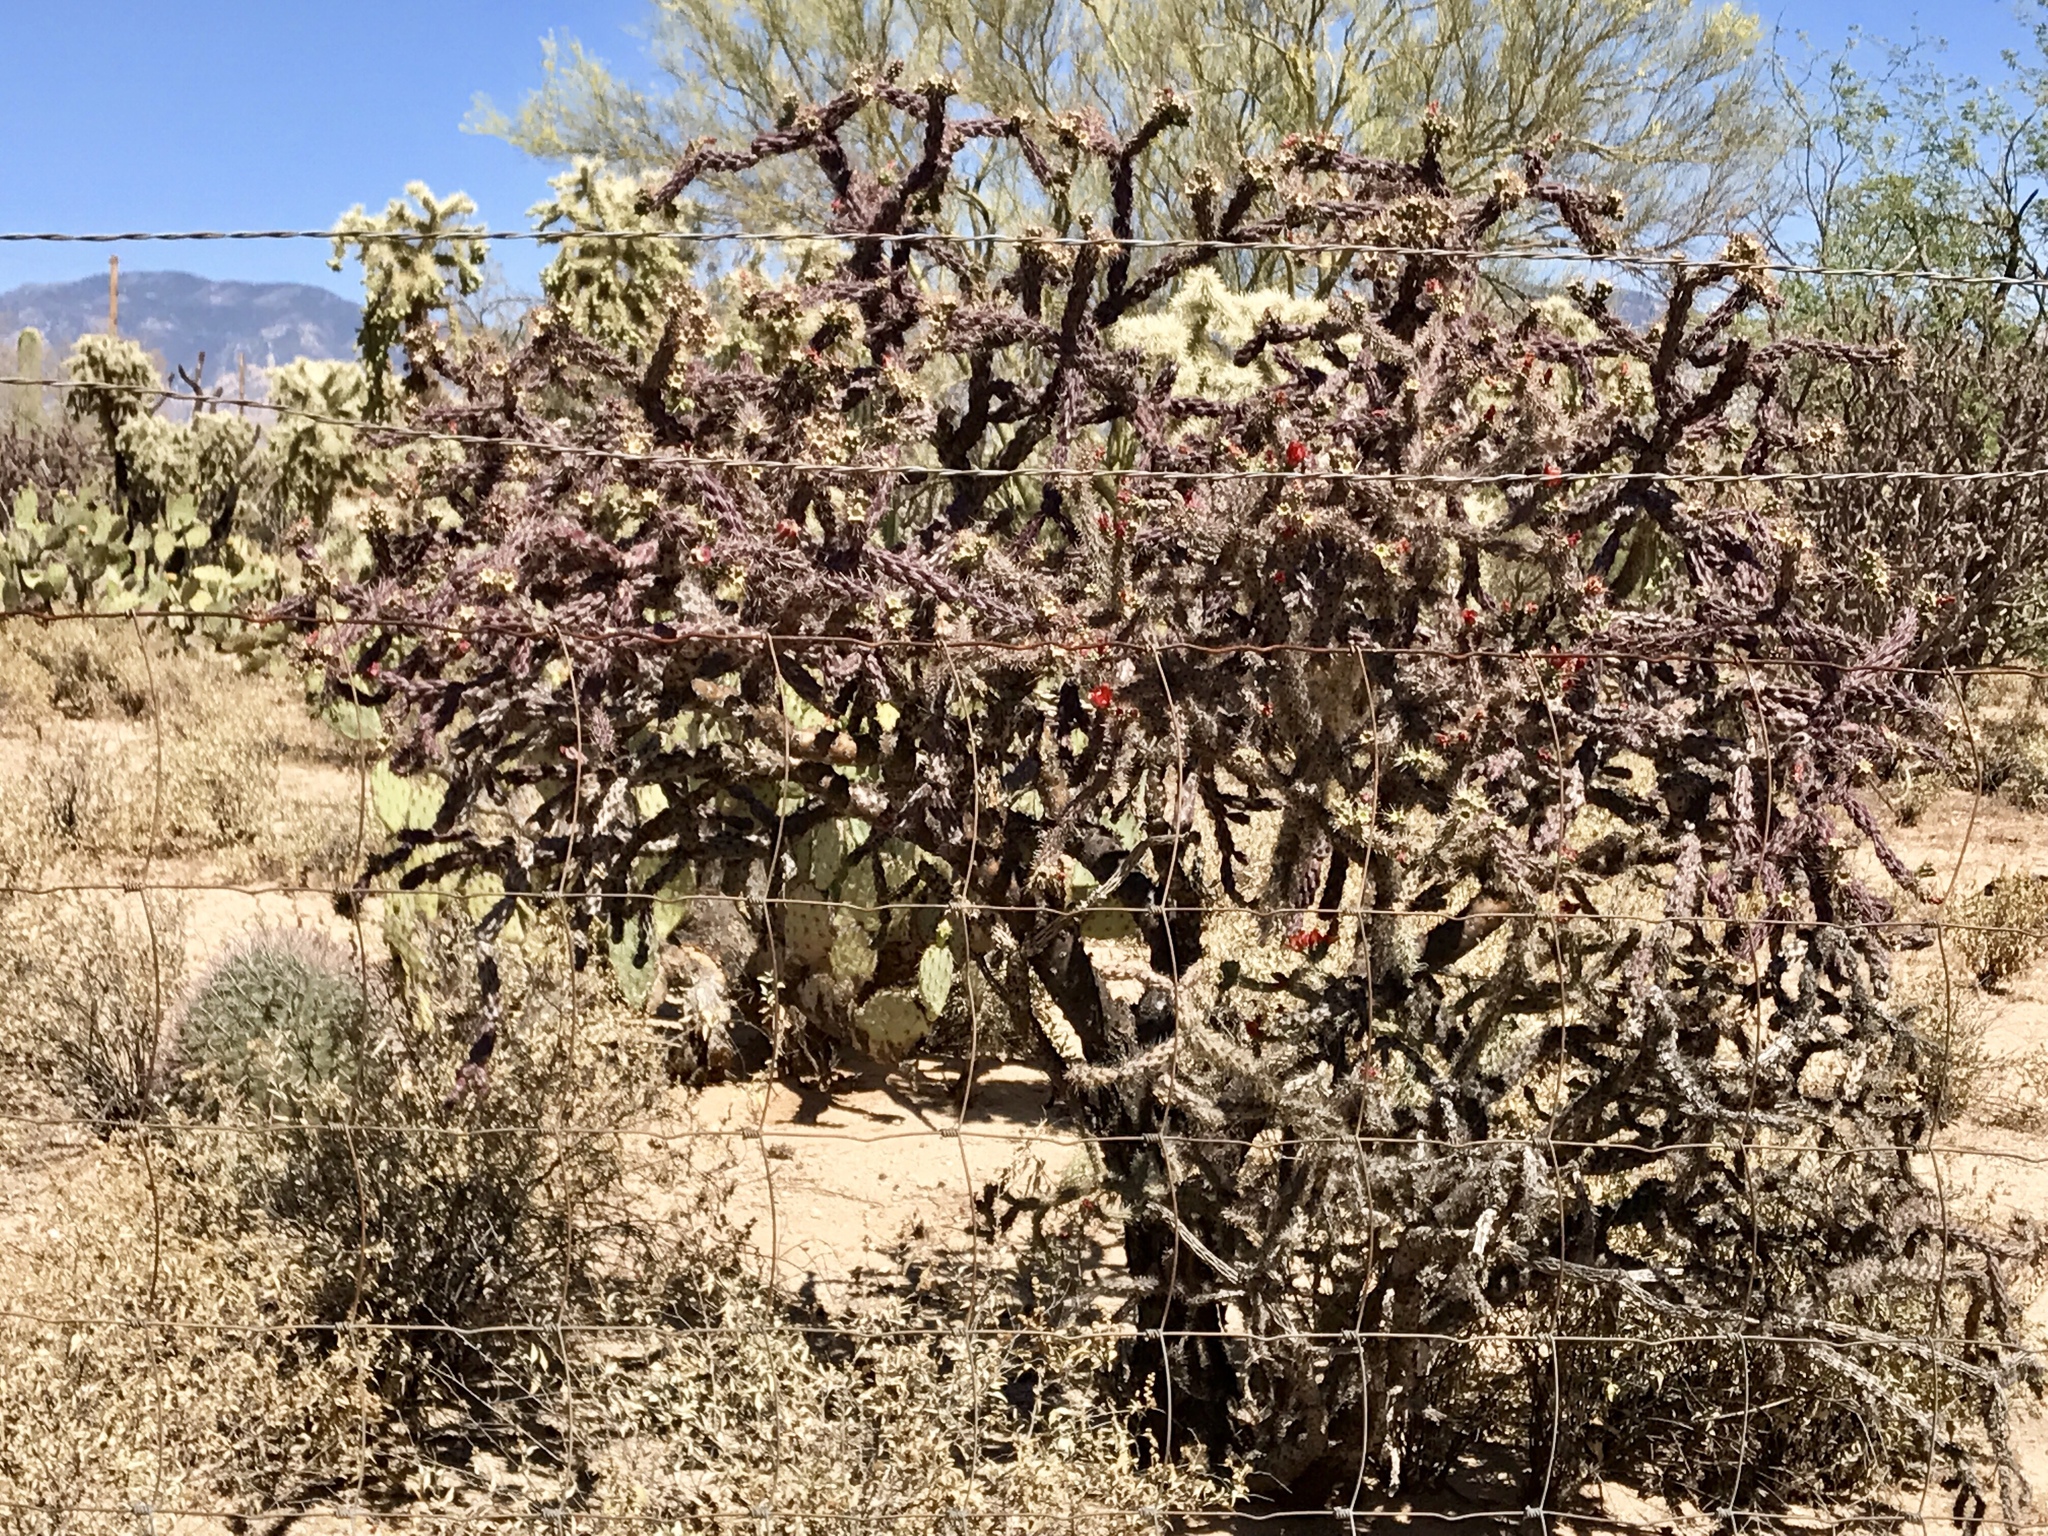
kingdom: Plantae
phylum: Tracheophyta
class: Magnoliopsida
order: Caryophyllales
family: Cactaceae
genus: Cylindropuntia
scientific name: Cylindropuntia thurberi
